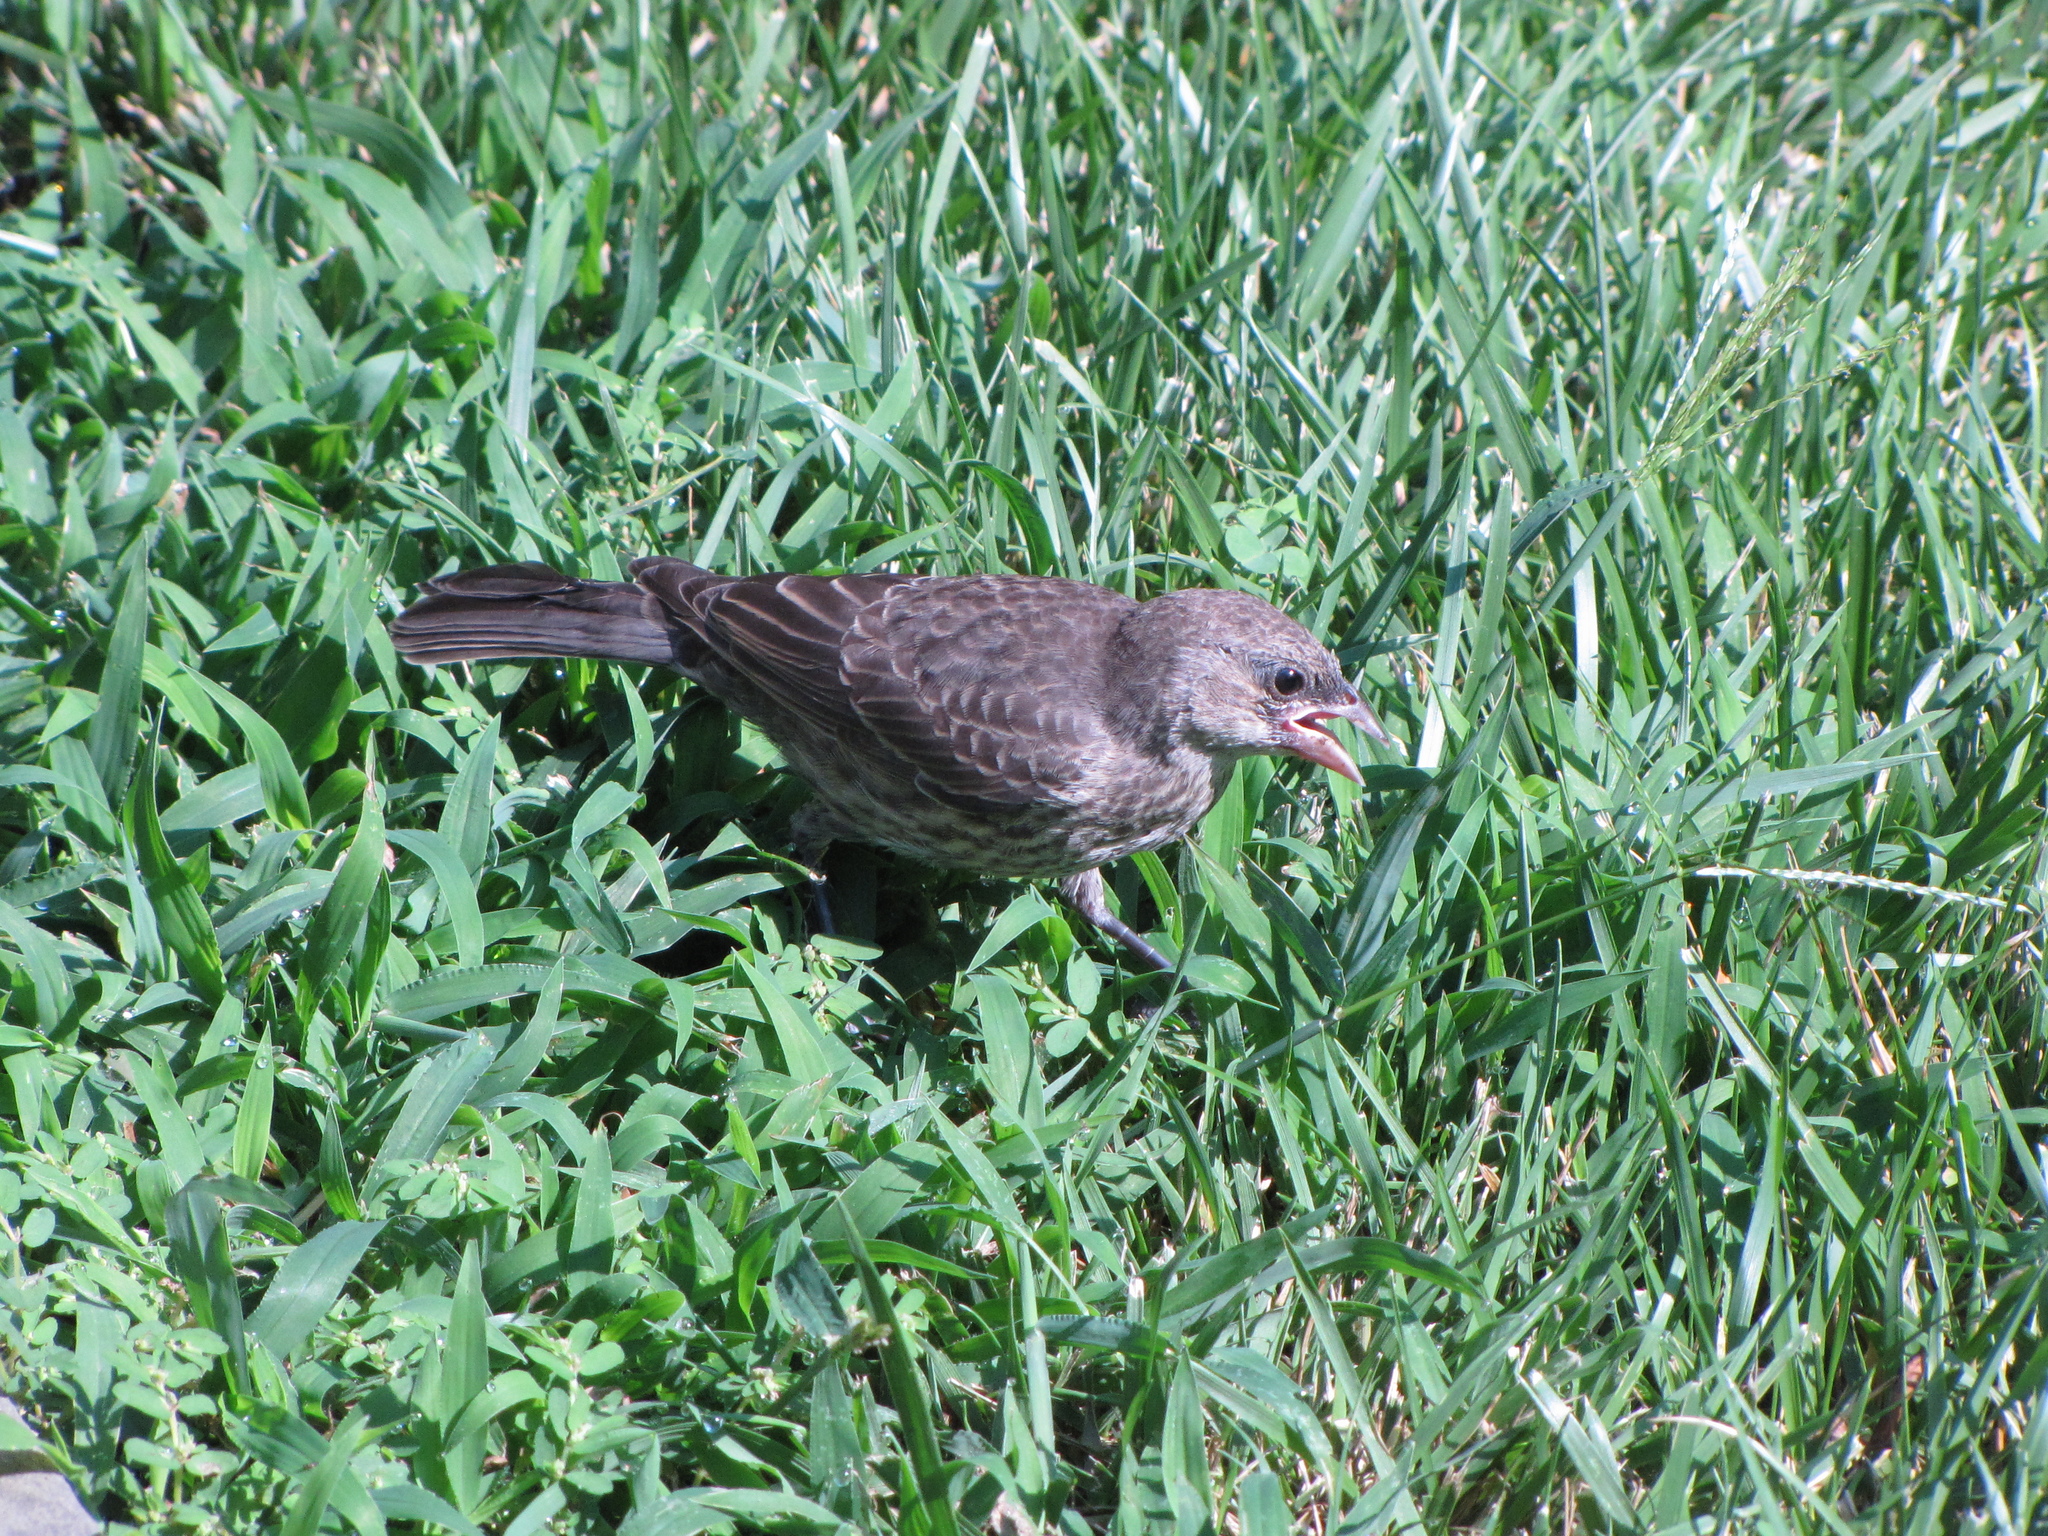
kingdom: Animalia
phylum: Chordata
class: Aves
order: Passeriformes
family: Icteridae
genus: Molothrus
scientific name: Molothrus ater
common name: Brown-headed cowbird
